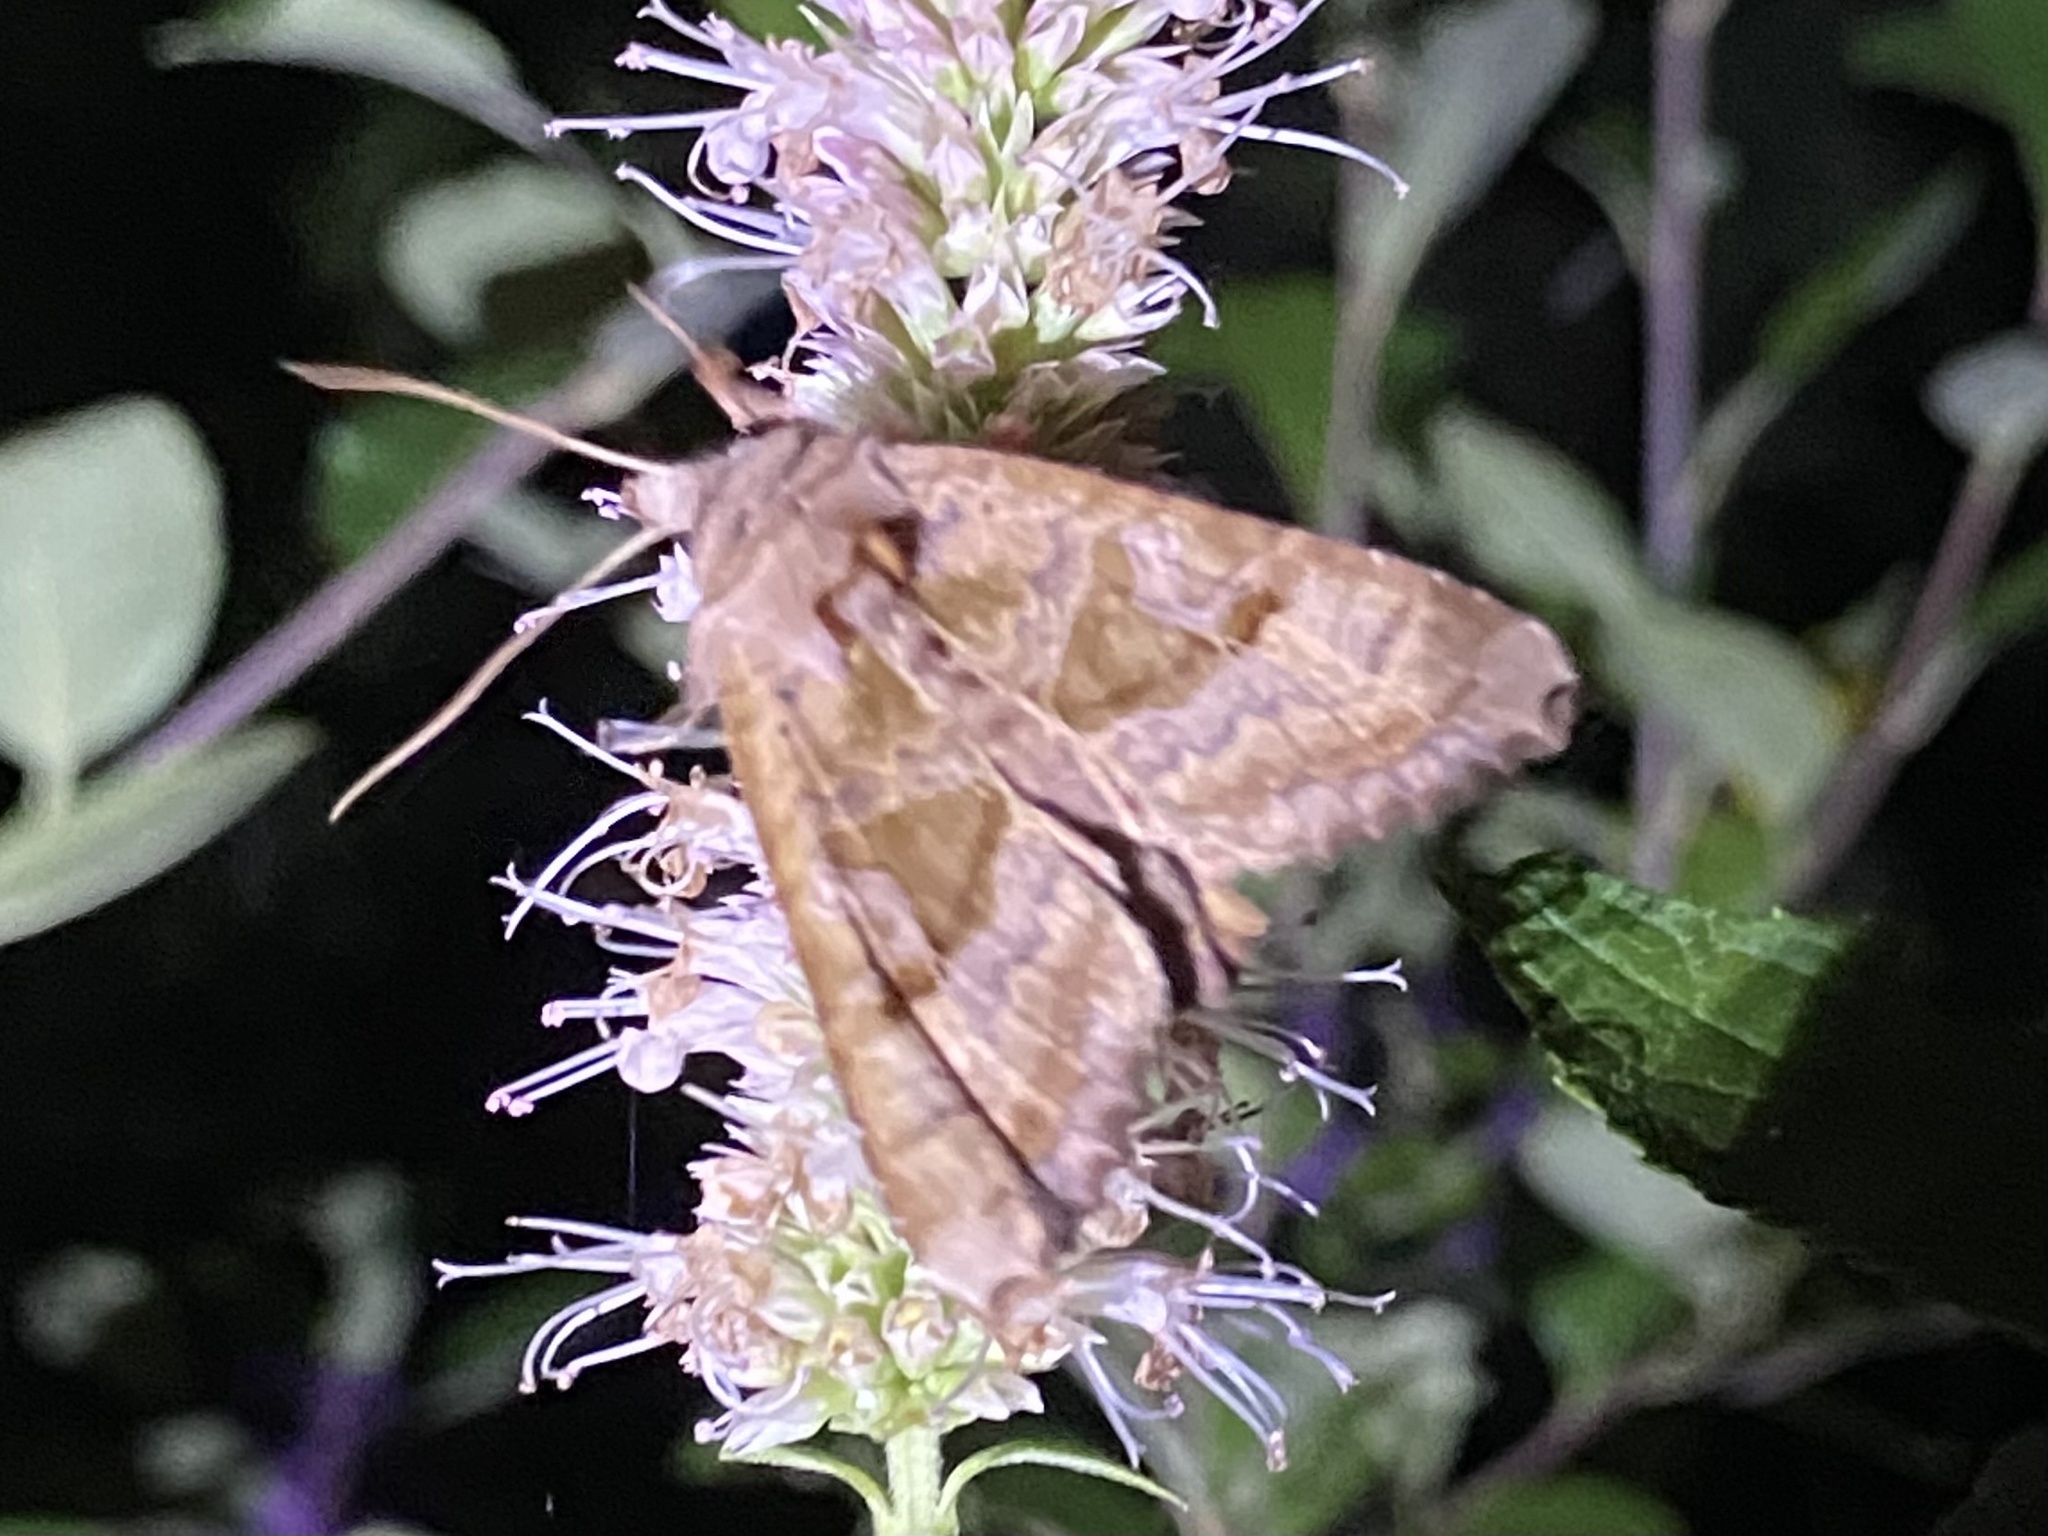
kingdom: Animalia
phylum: Arthropoda
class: Insecta
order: Lepidoptera
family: Noctuidae
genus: Phlogophora
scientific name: Phlogophora periculosa
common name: Brown angle shades
